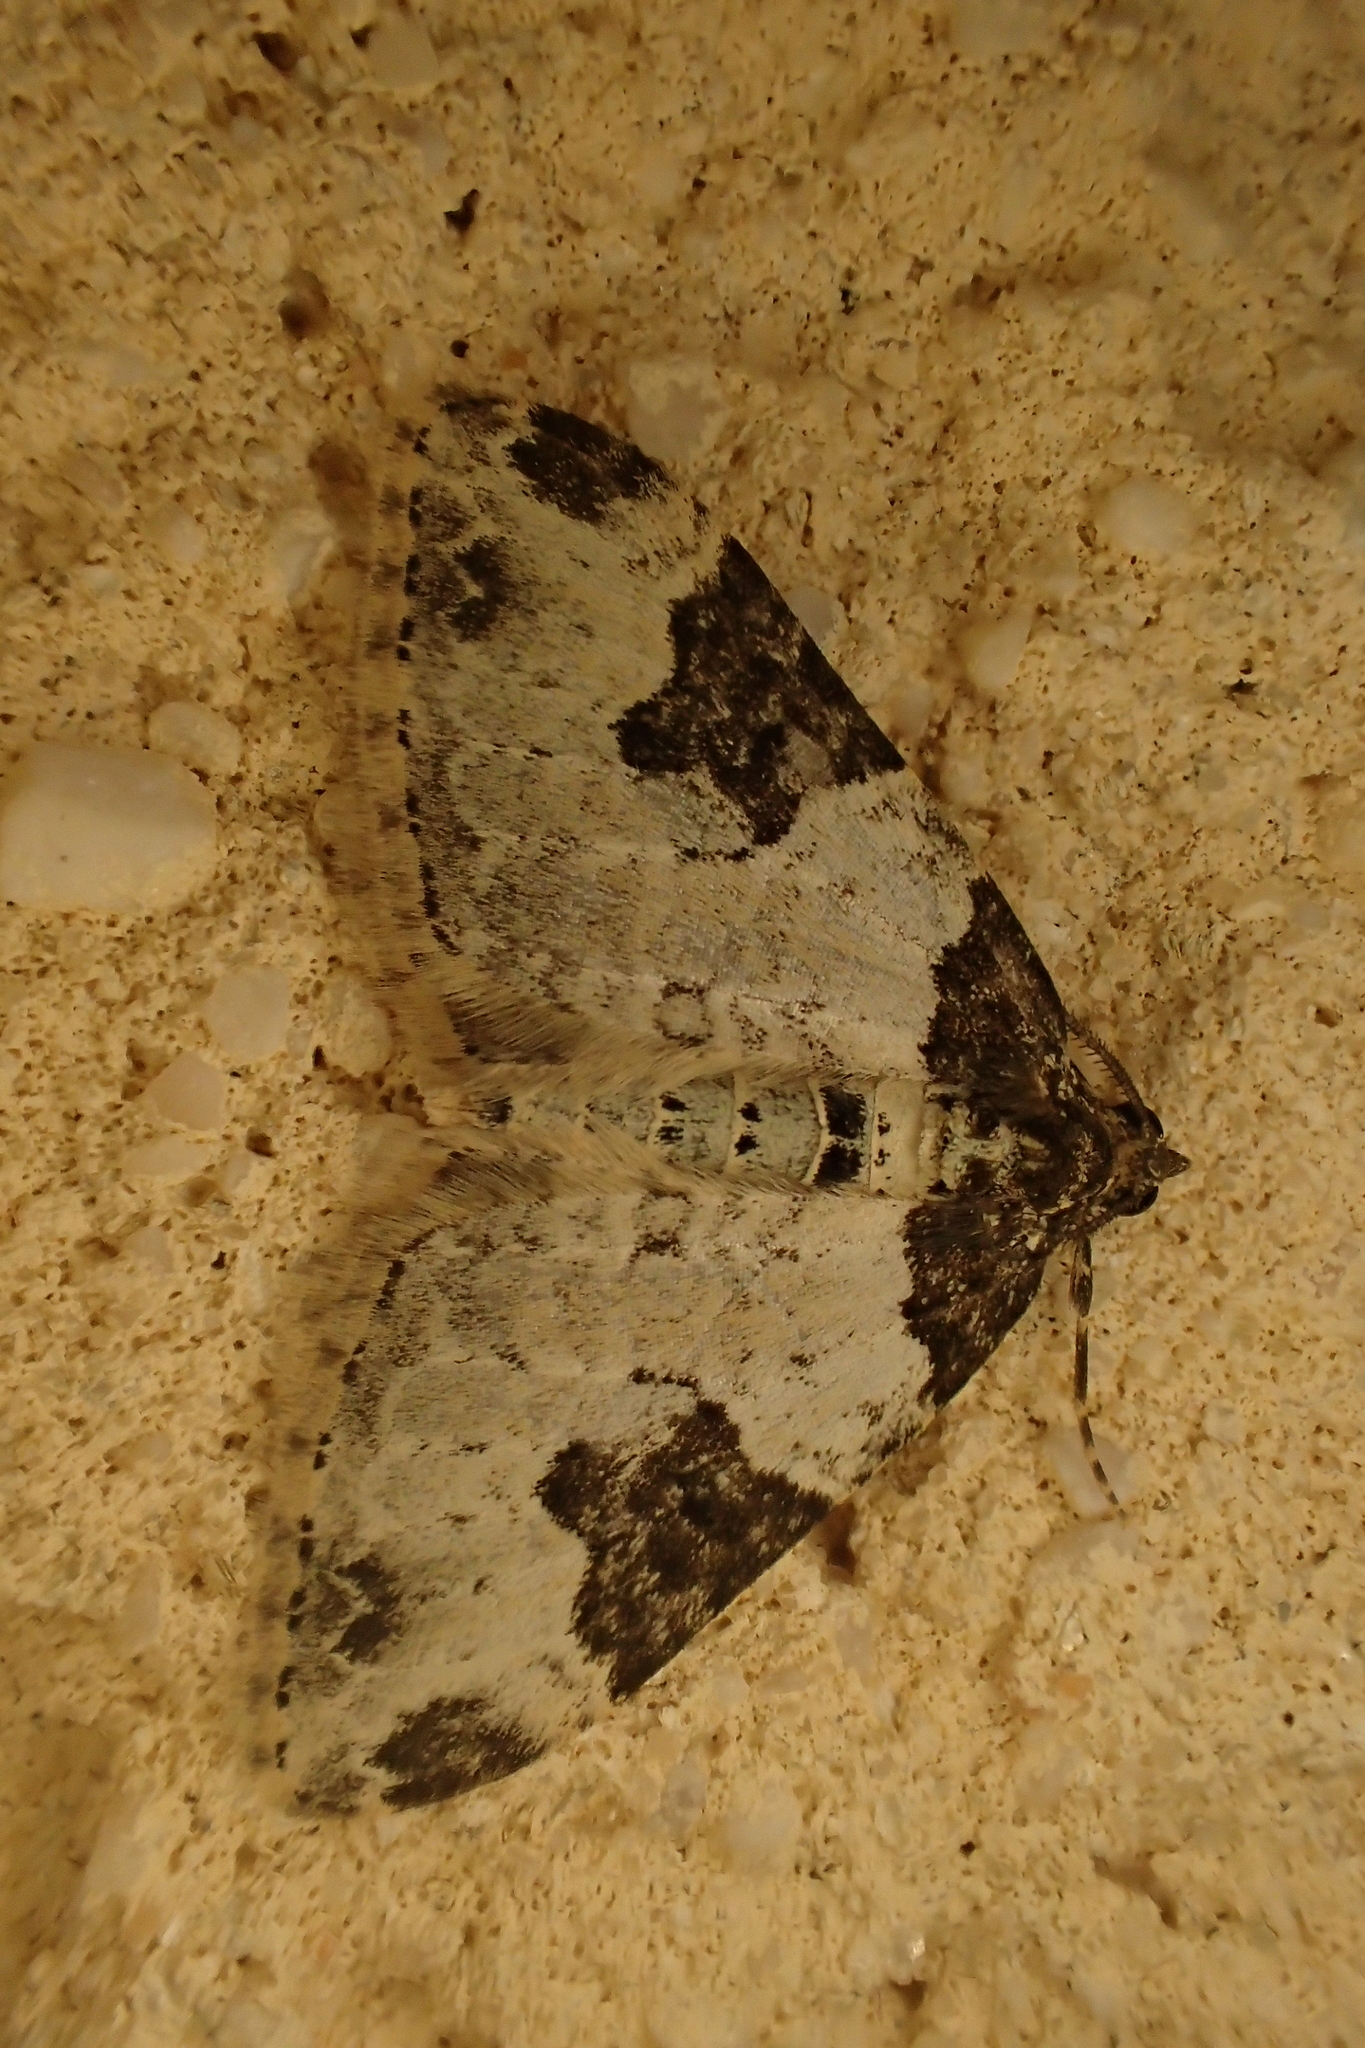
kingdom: Animalia
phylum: Arthropoda
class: Insecta
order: Lepidoptera
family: Geometridae
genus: Xanthorhoe
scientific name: Xanthorhoe fluctuata
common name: Garden carpet
